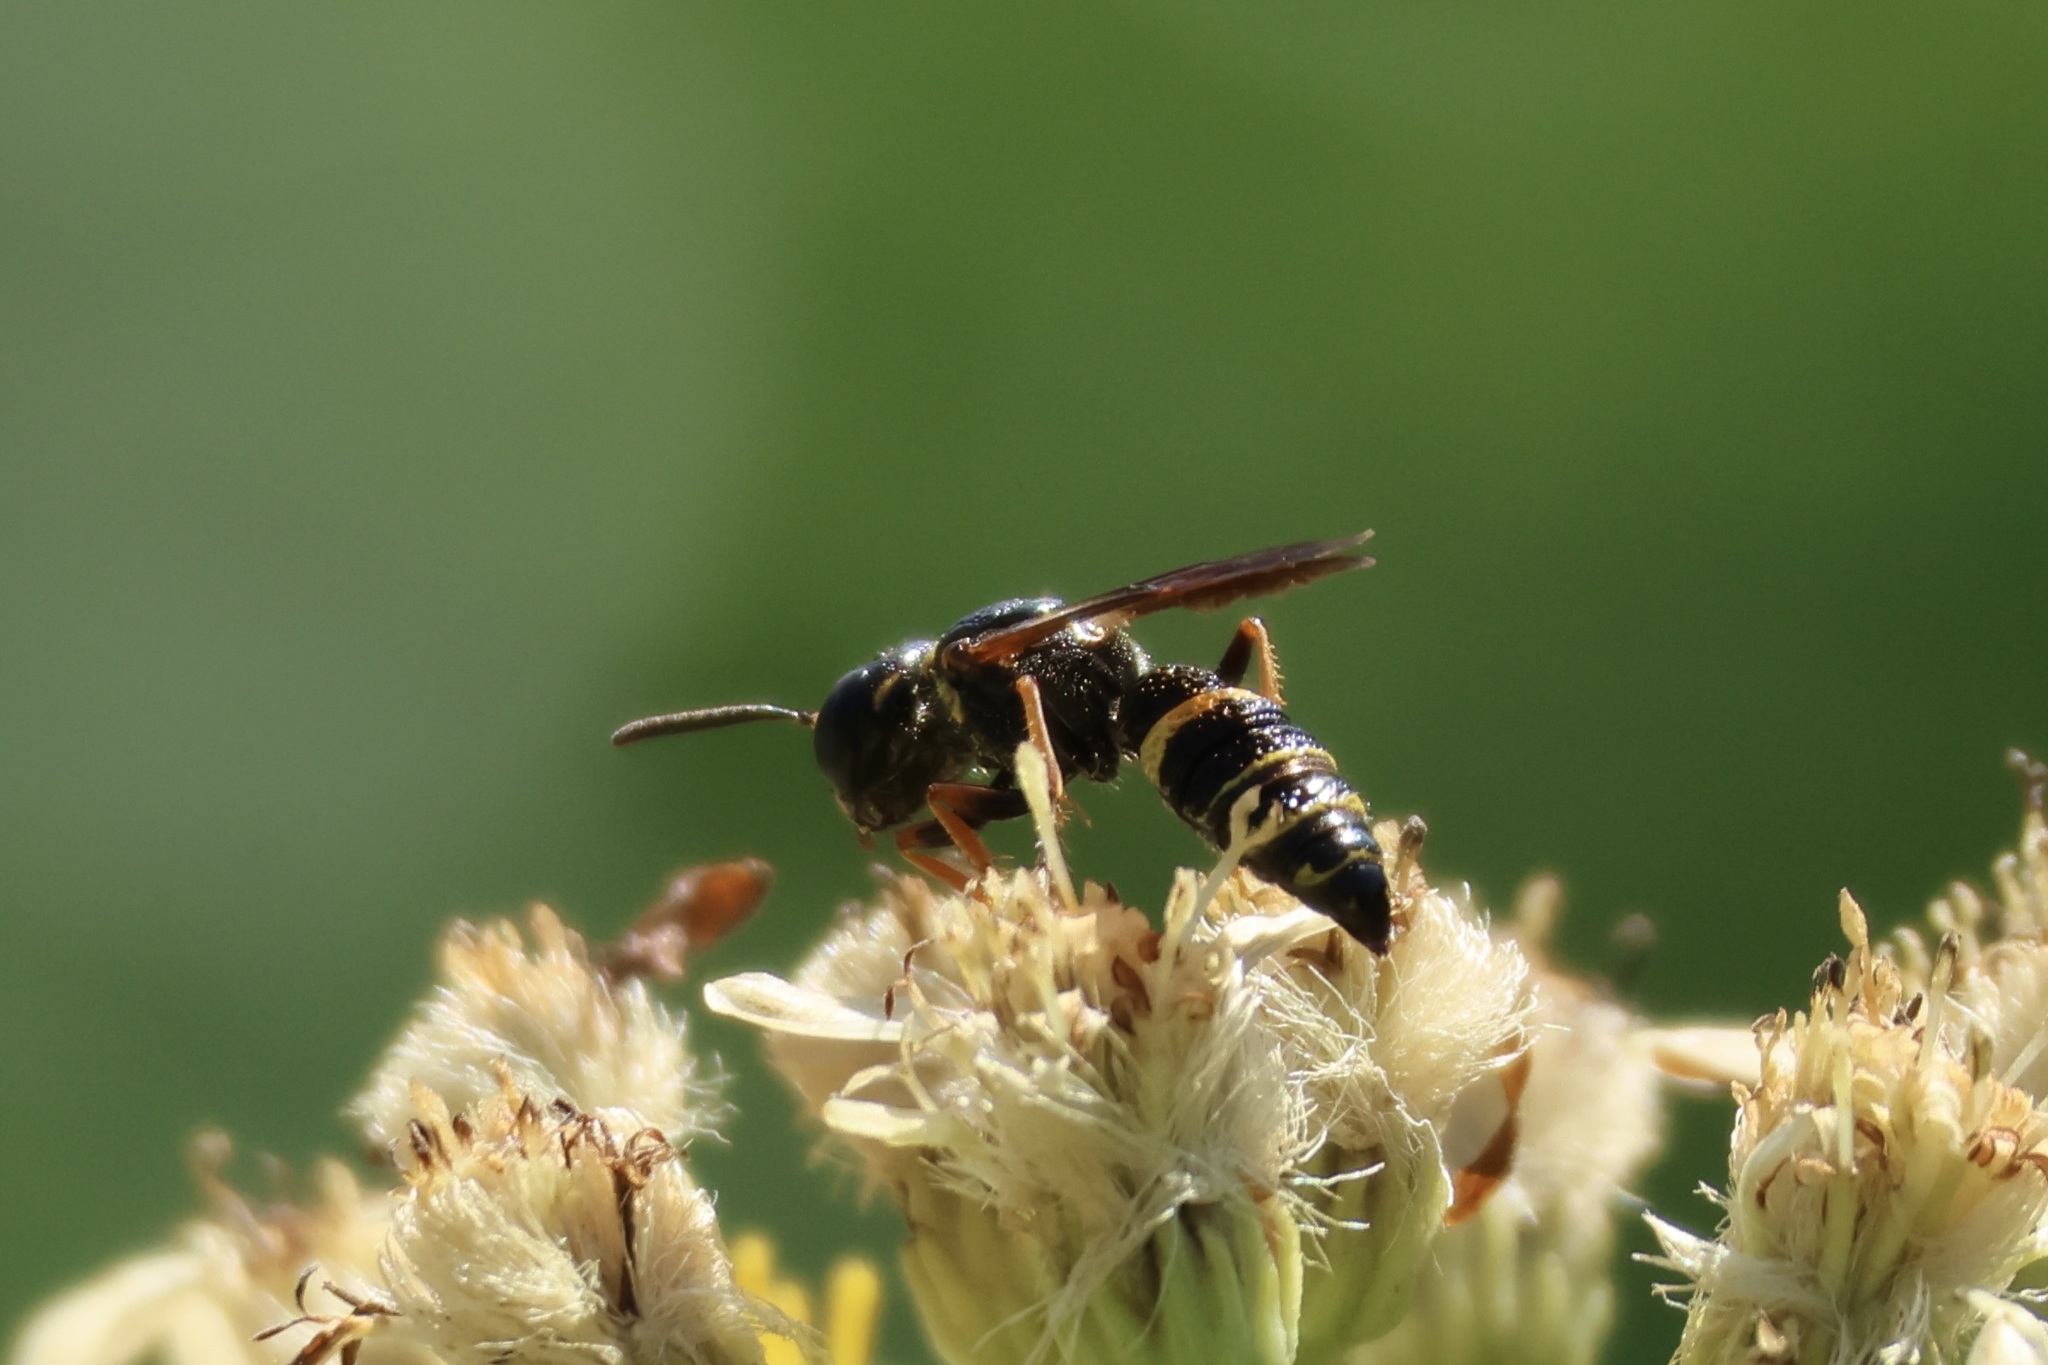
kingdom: Animalia
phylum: Arthropoda
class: Insecta
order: Hymenoptera
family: Crabronidae
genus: Philanthus
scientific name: Philanthus gibbosus
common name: Humped beewolf
